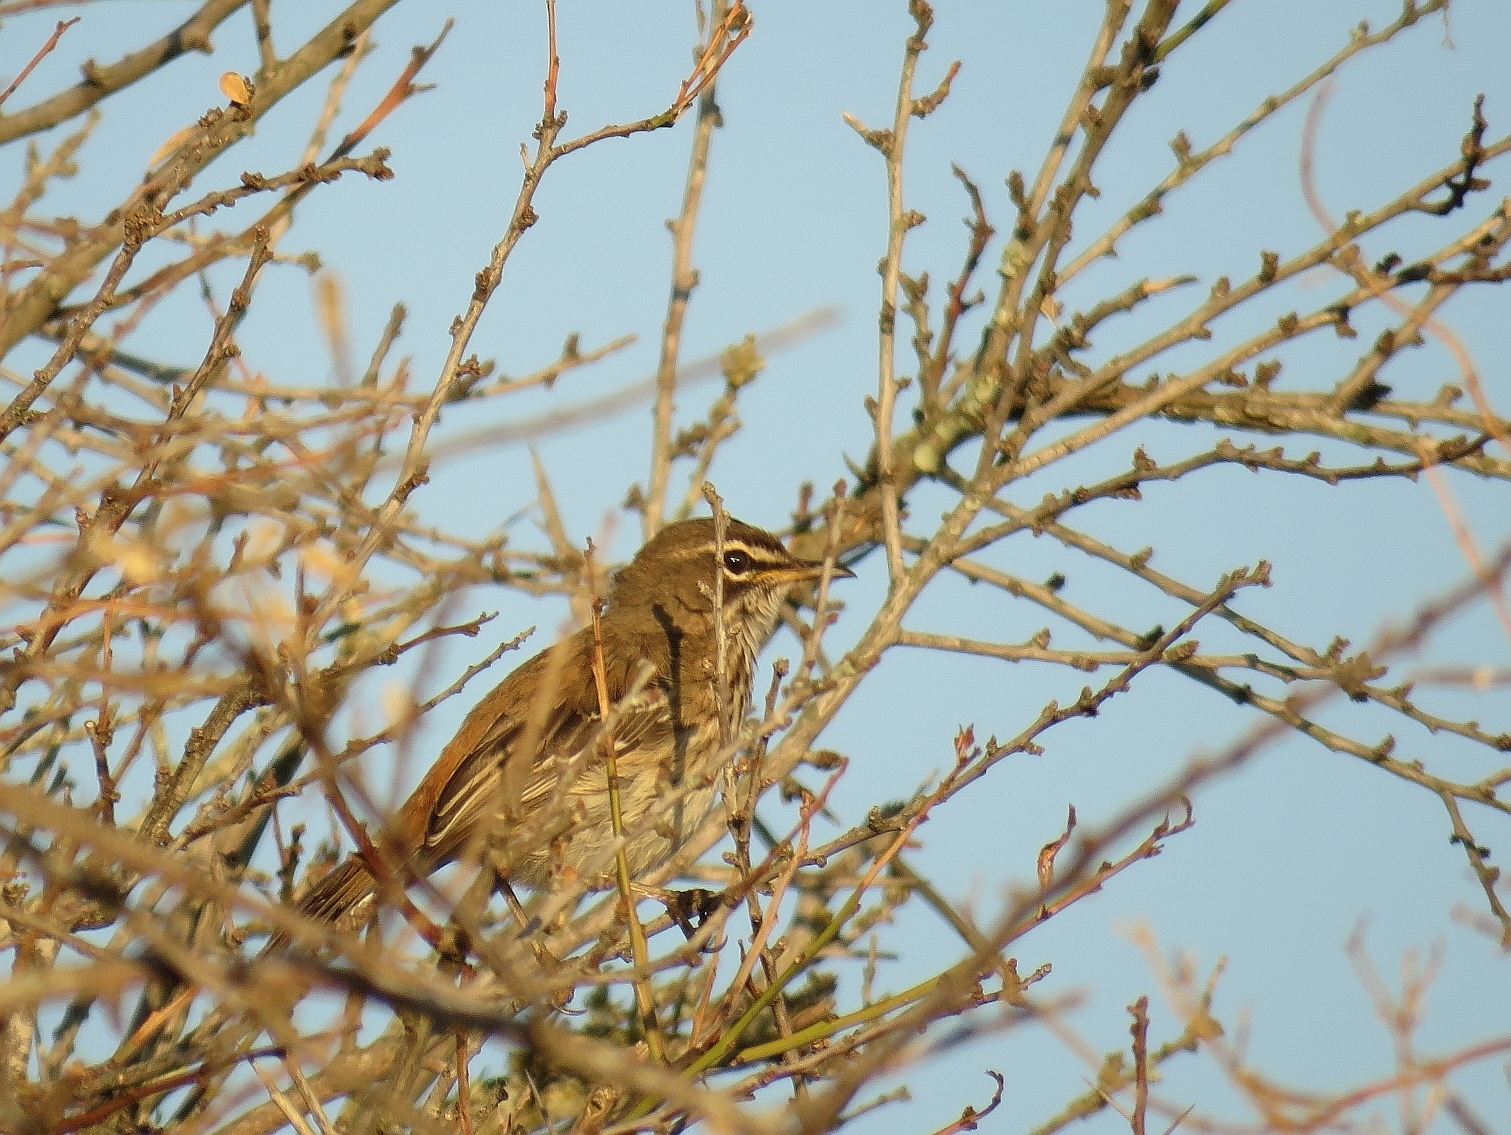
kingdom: Animalia
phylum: Chordata
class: Aves
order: Passeriformes
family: Muscicapidae
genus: Erythropygia
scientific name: Erythropygia leucophrys
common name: White-browed scrub robin
